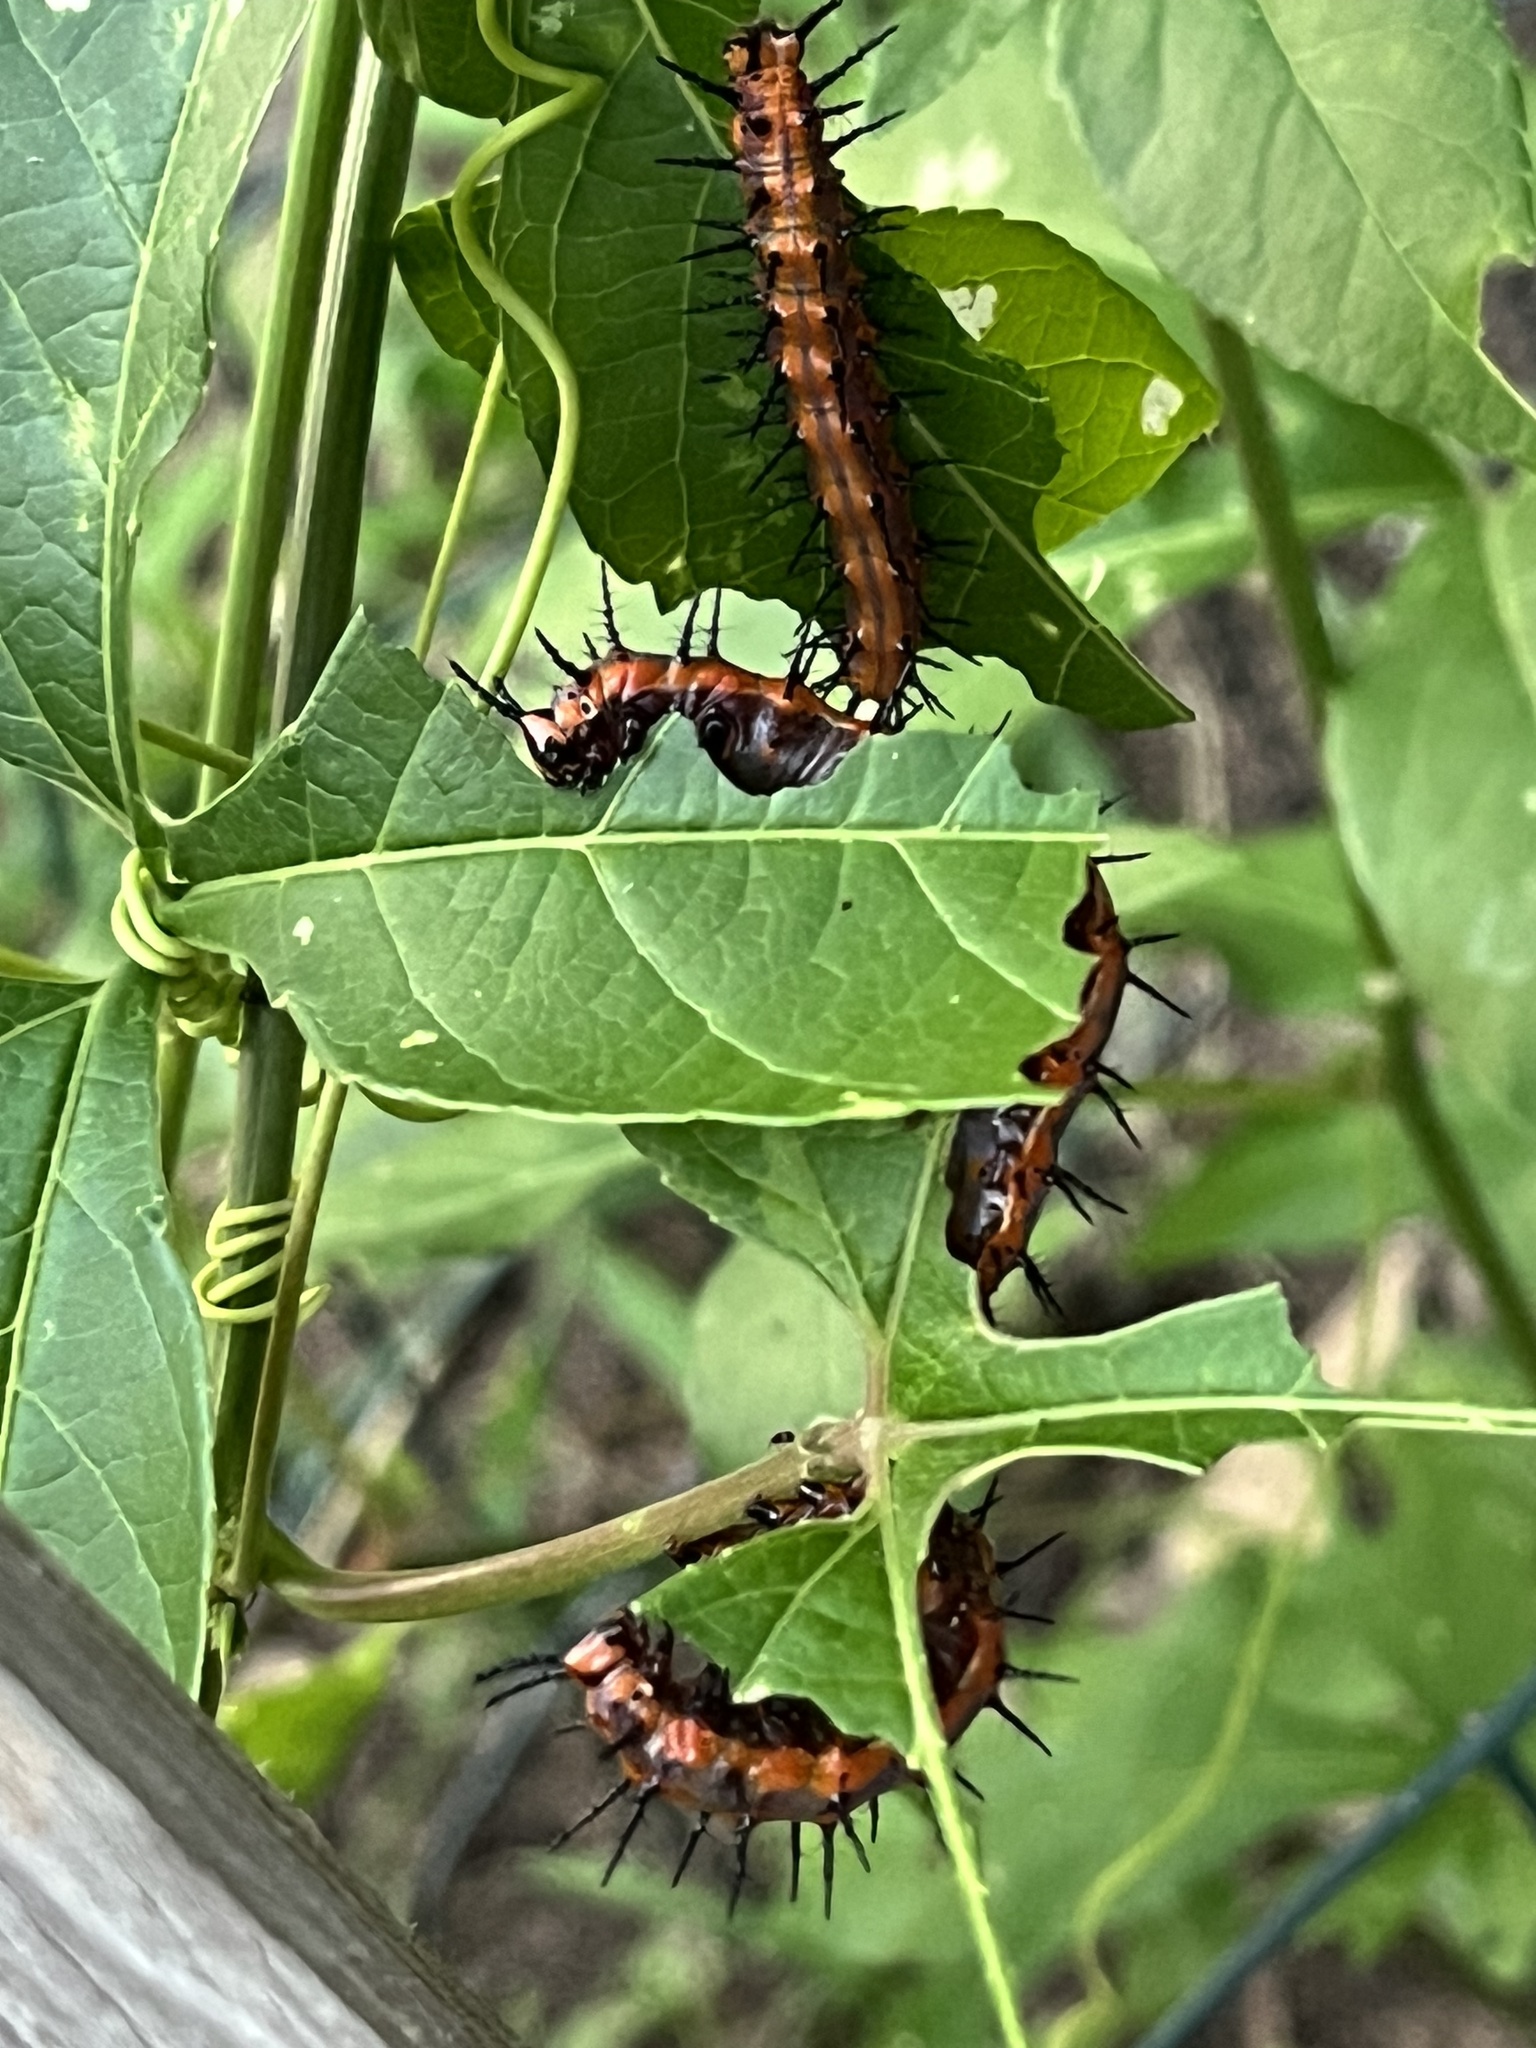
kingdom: Animalia
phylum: Arthropoda
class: Insecta
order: Lepidoptera
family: Nymphalidae
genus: Dione
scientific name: Dione vanillae
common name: Gulf fritillary
